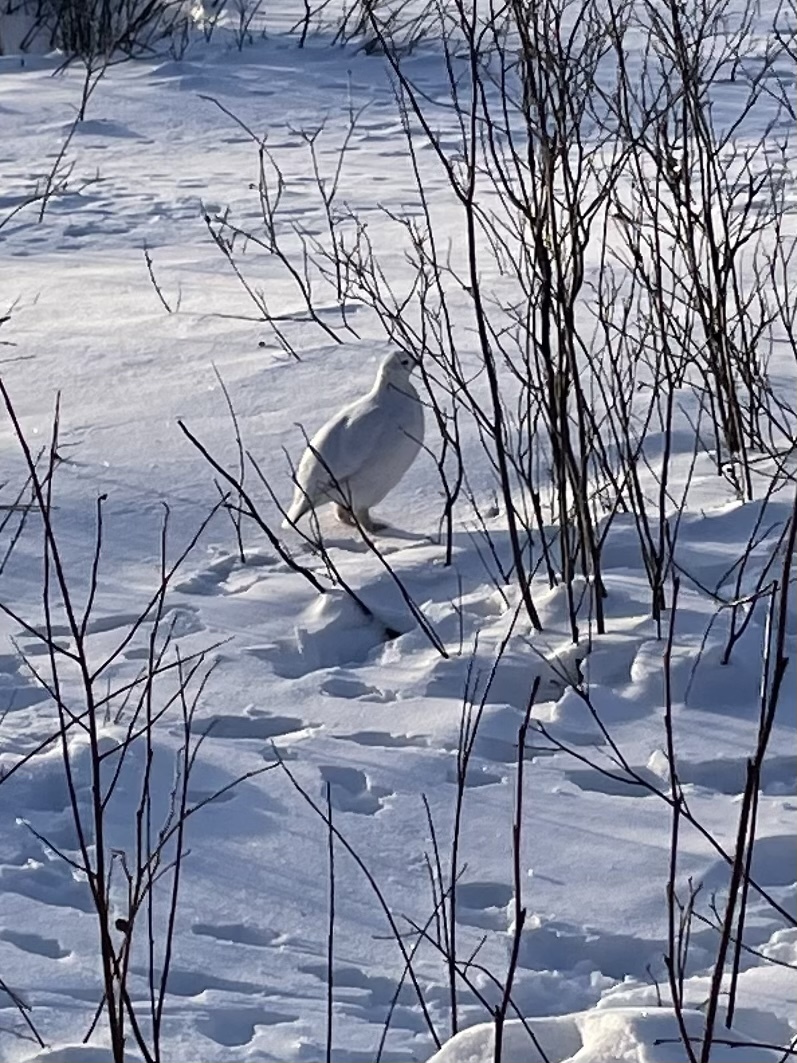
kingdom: Animalia
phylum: Chordata
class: Aves
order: Galliformes
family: Phasianidae
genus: Lagopus
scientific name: Lagopus lagopus
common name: Willow ptarmigan
